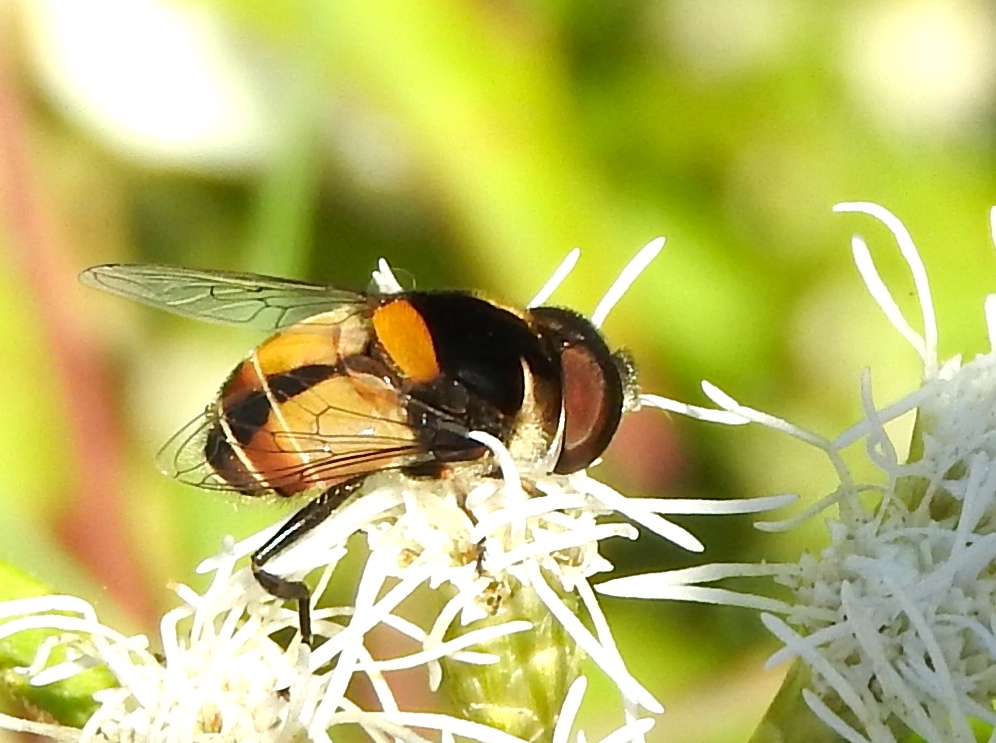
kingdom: Animalia
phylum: Arthropoda
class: Insecta
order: Diptera
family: Syrphidae
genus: Palpada
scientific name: Palpada
